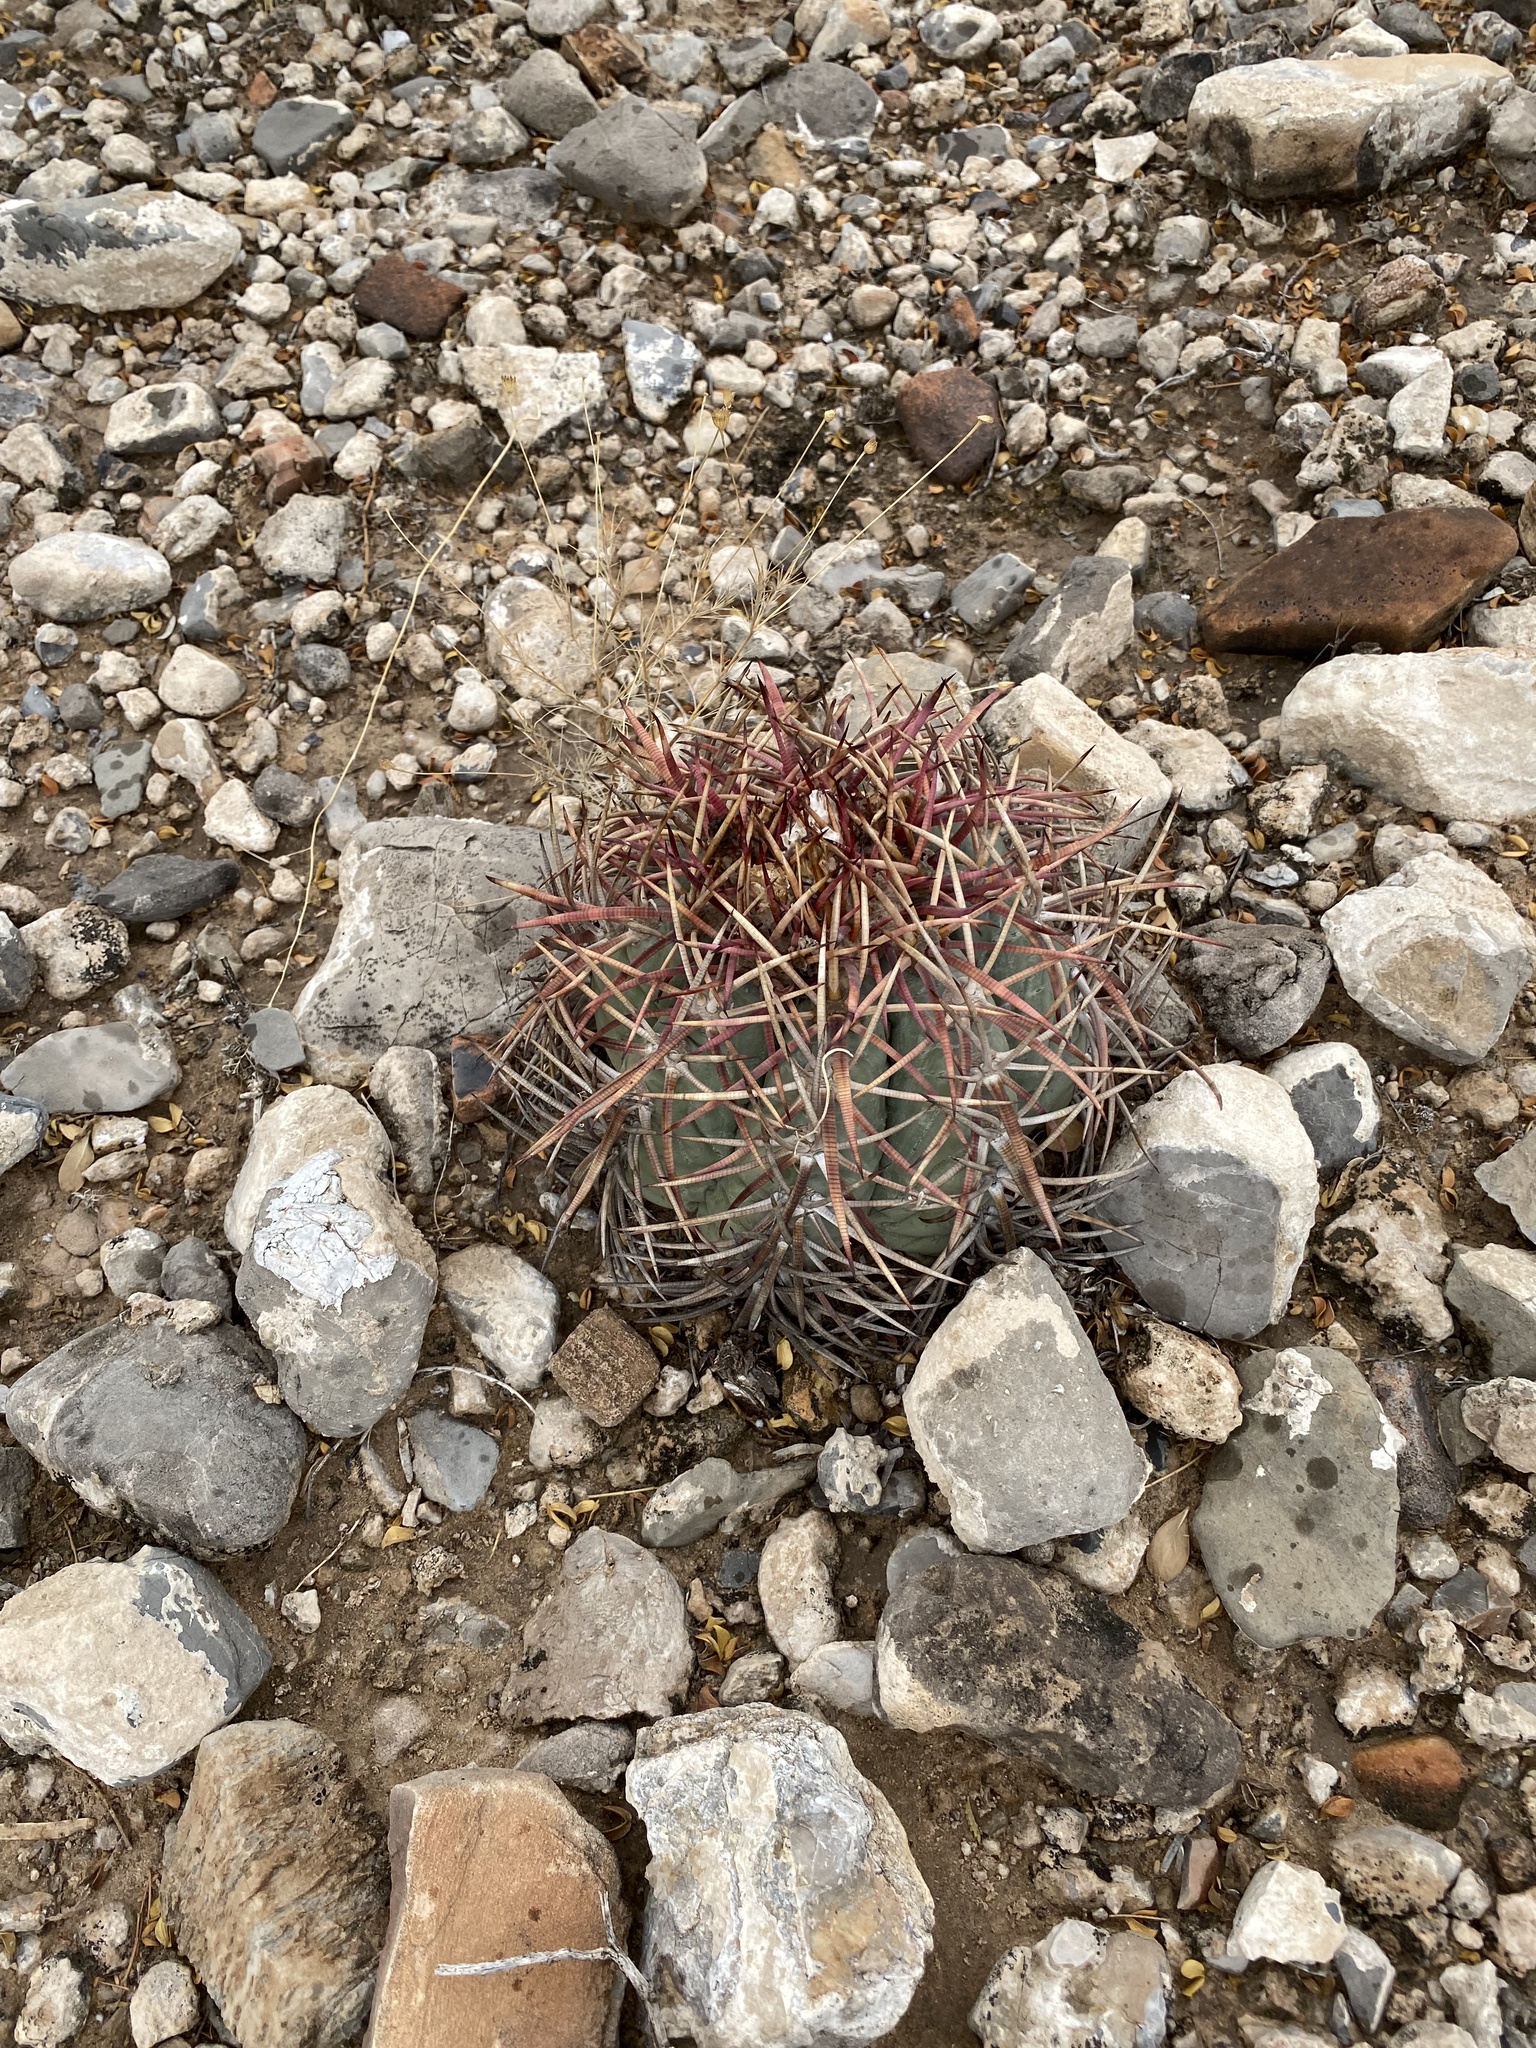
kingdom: Plantae
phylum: Tracheophyta
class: Magnoliopsida
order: Caryophyllales
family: Cactaceae
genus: Echinocactus
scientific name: Echinocactus horizonthalonius
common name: Devilshead
